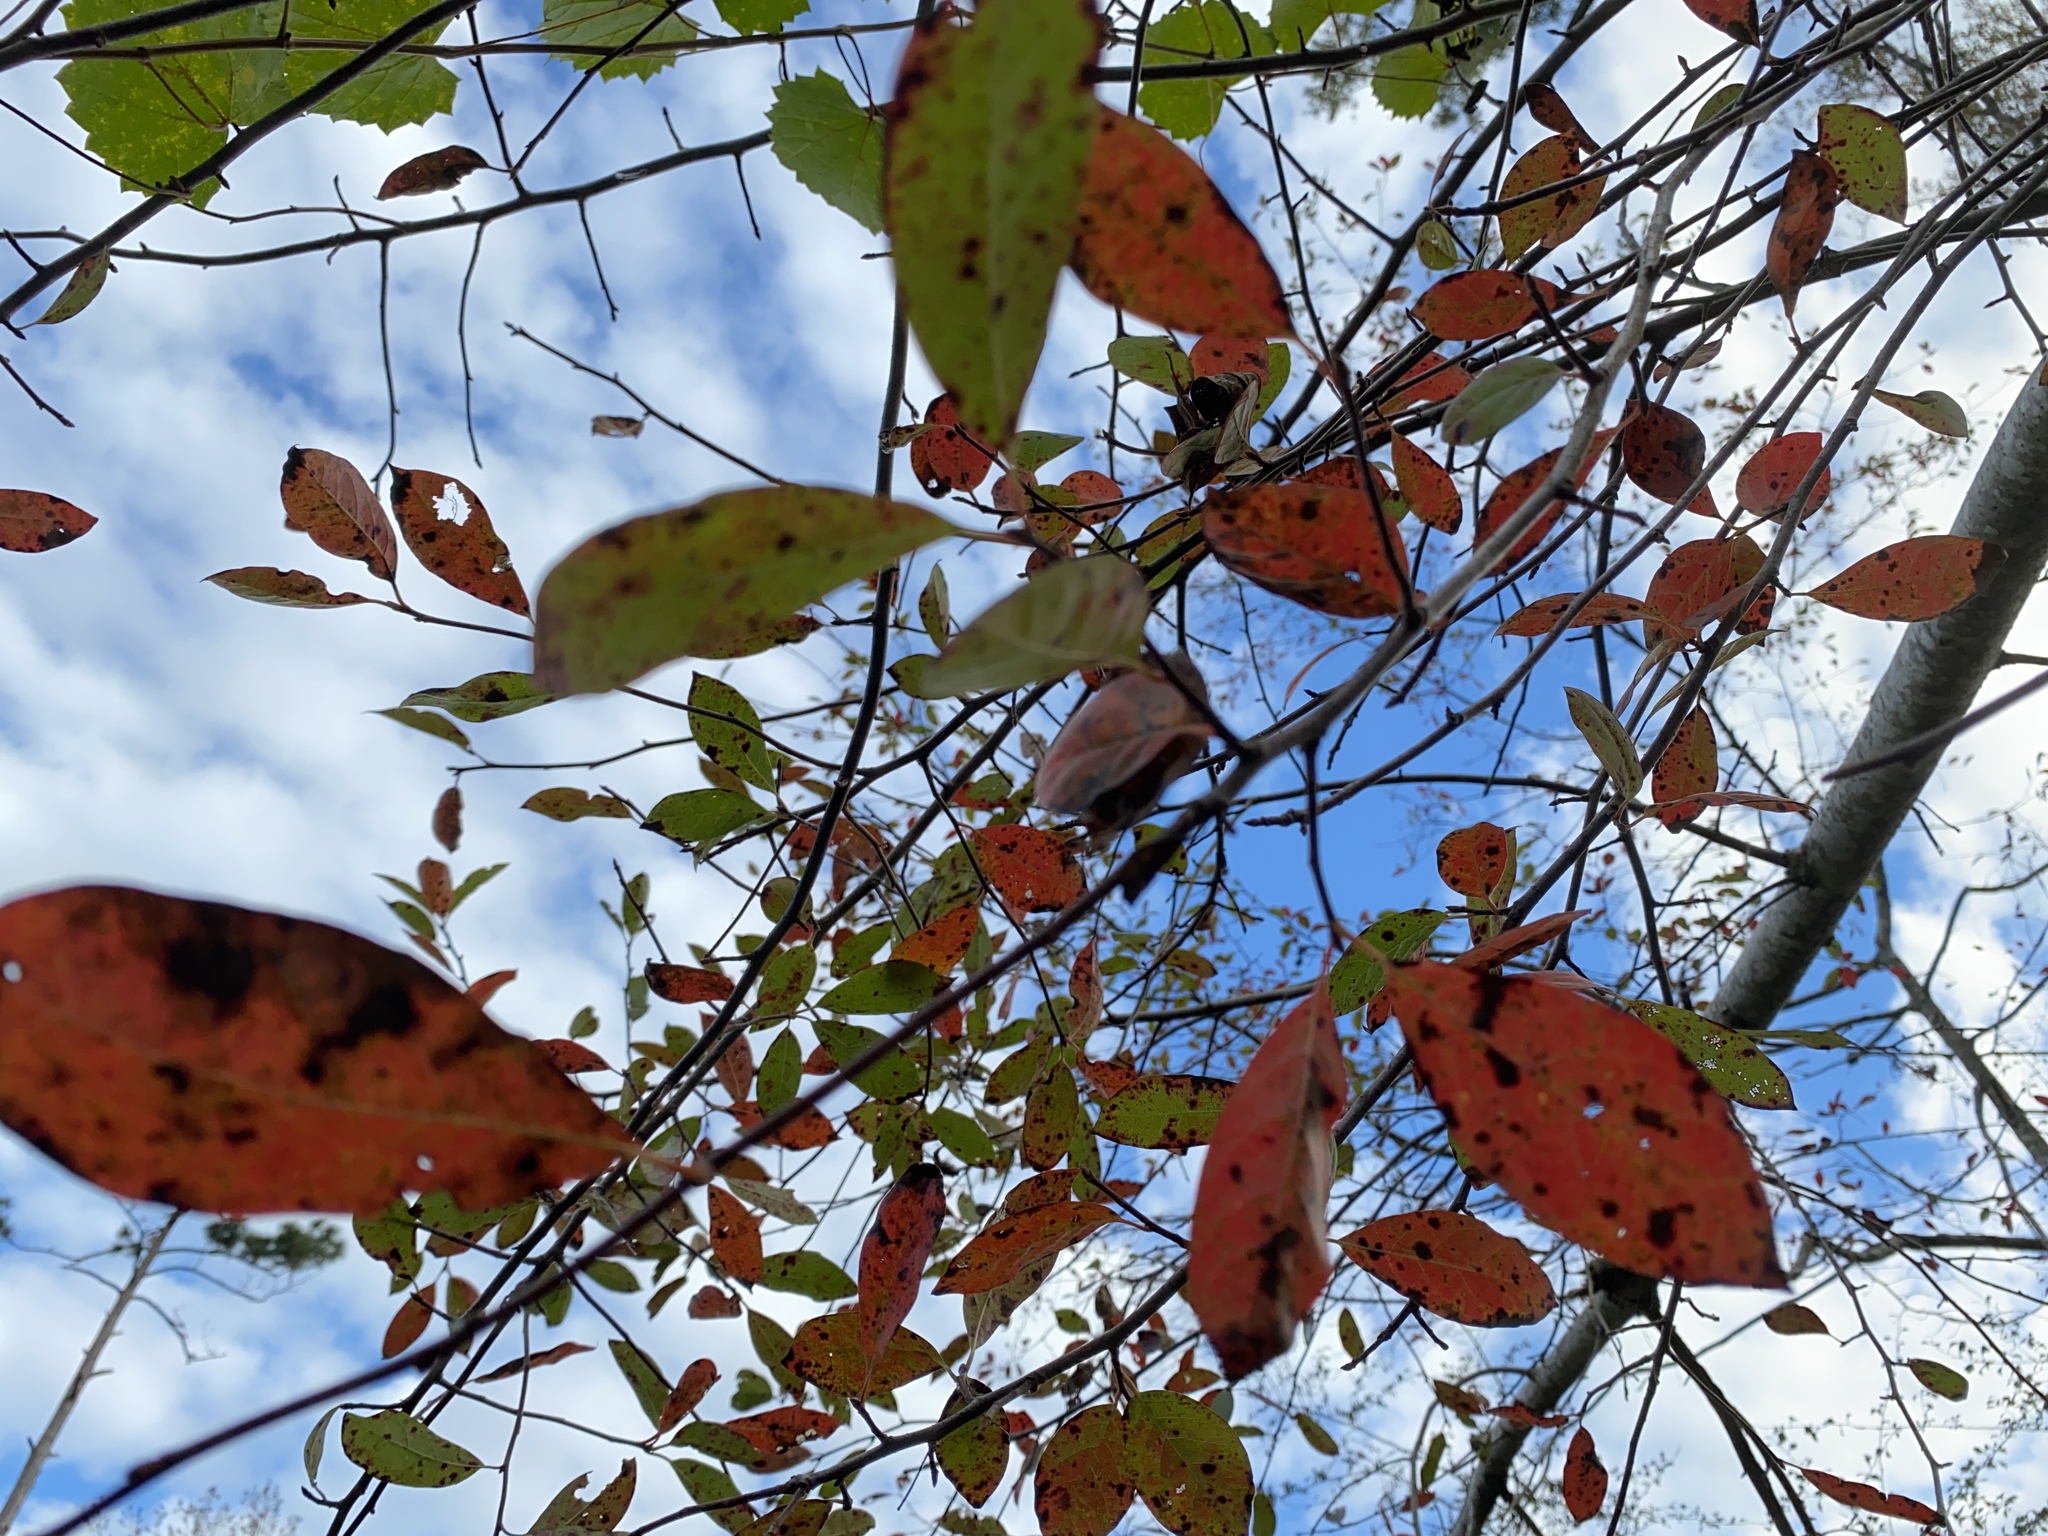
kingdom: Plantae
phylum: Tracheophyta
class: Magnoliopsida
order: Cornales
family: Nyssaceae
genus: Nyssa
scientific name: Nyssa sylvatica
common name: Black tupelo
